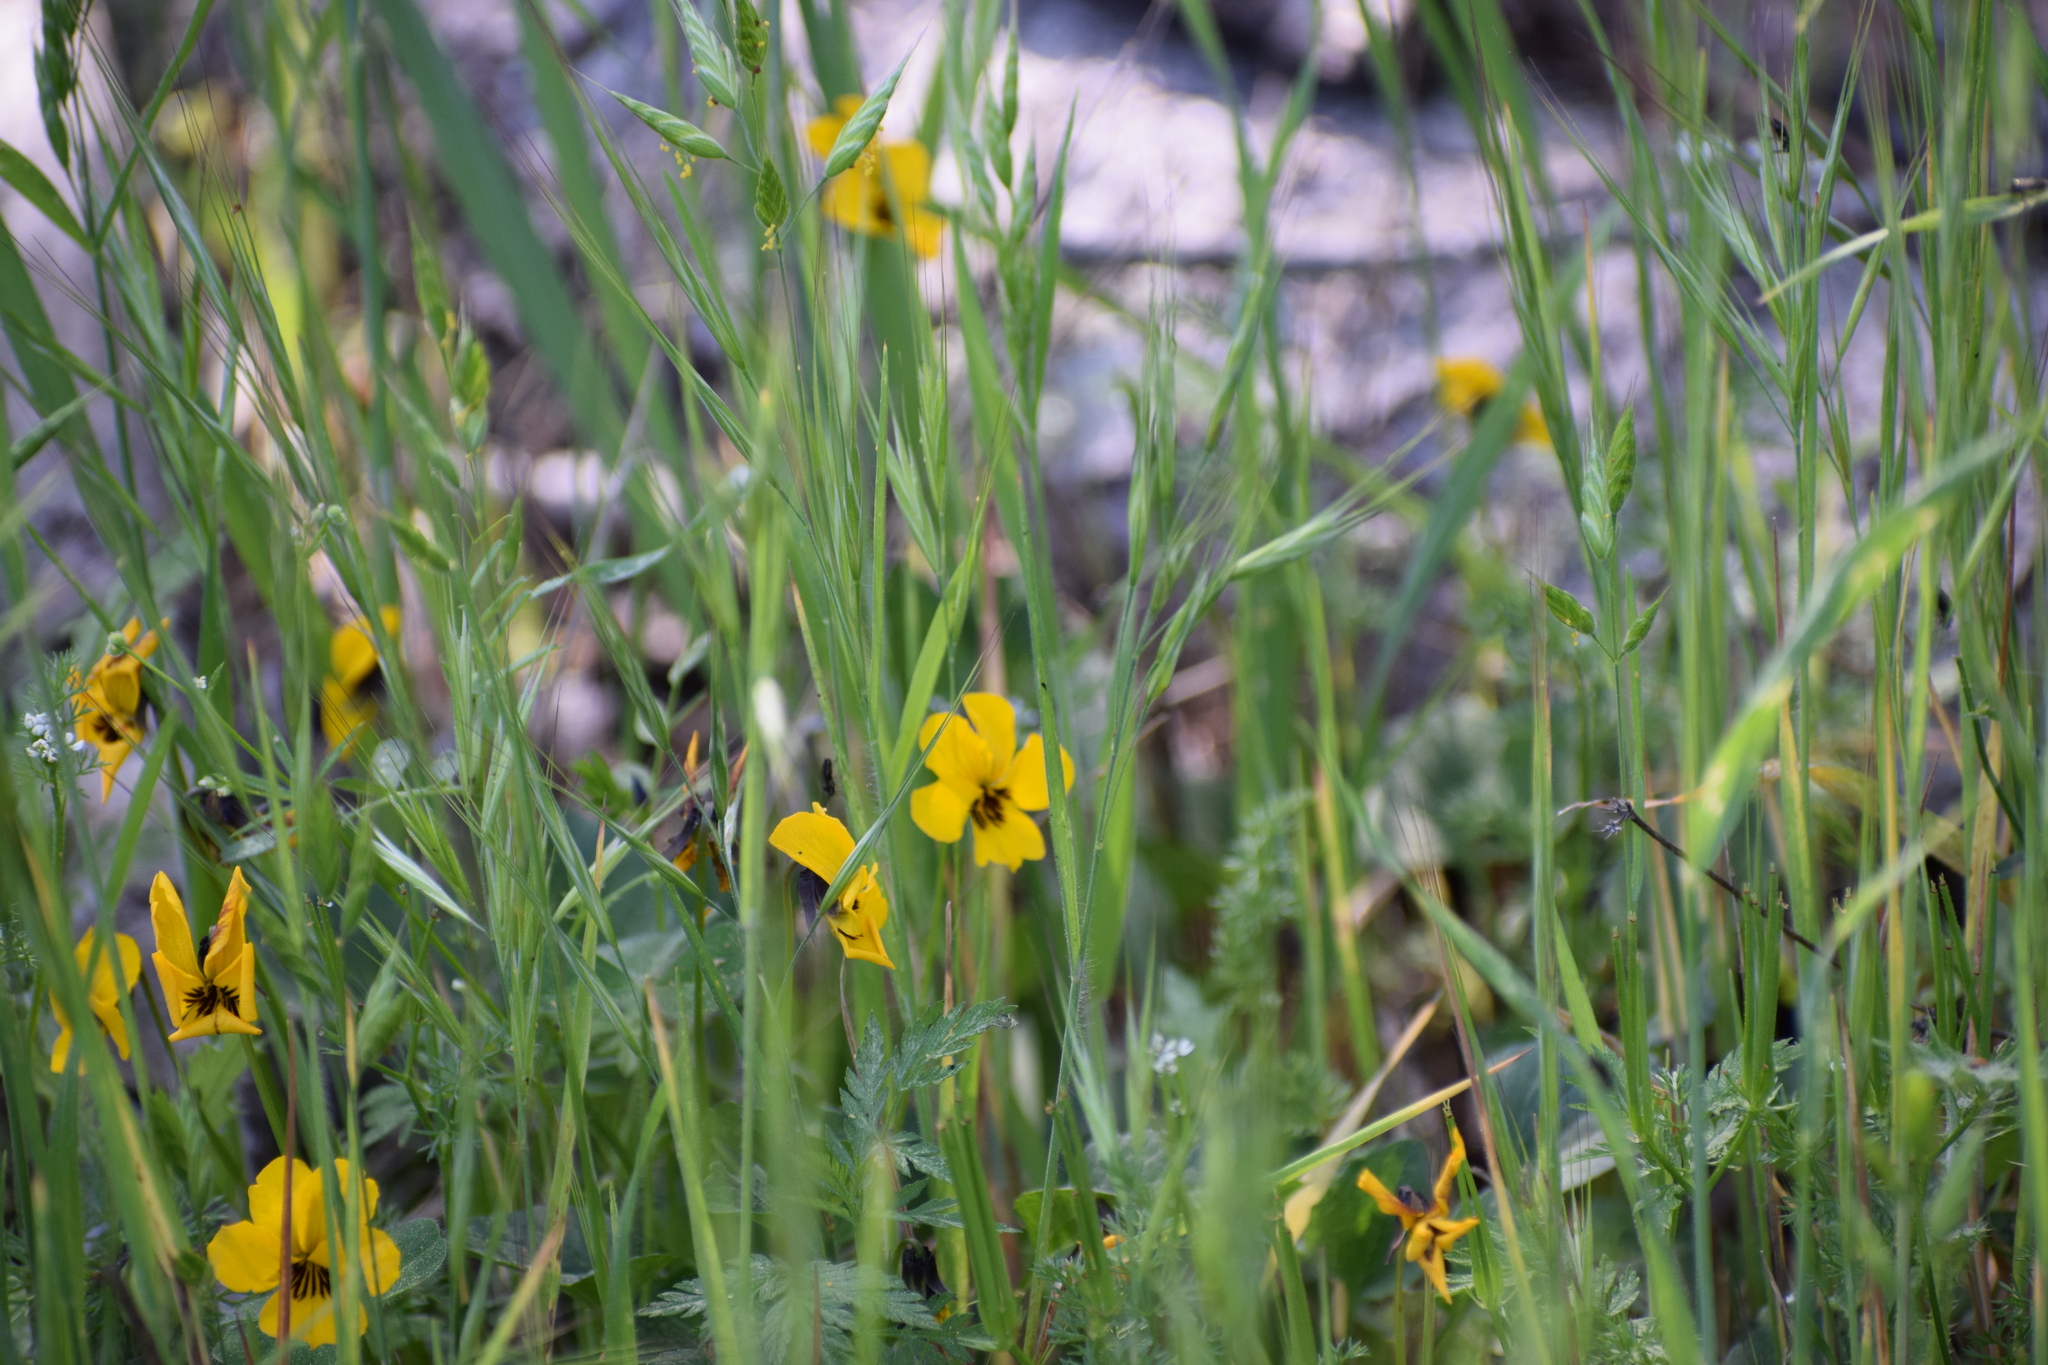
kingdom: Plantae
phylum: Tracheophyta
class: Magnoliopsida
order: Malpighiales
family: Violaceae
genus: Viola
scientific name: Viola pedunculata
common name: California golden violet
